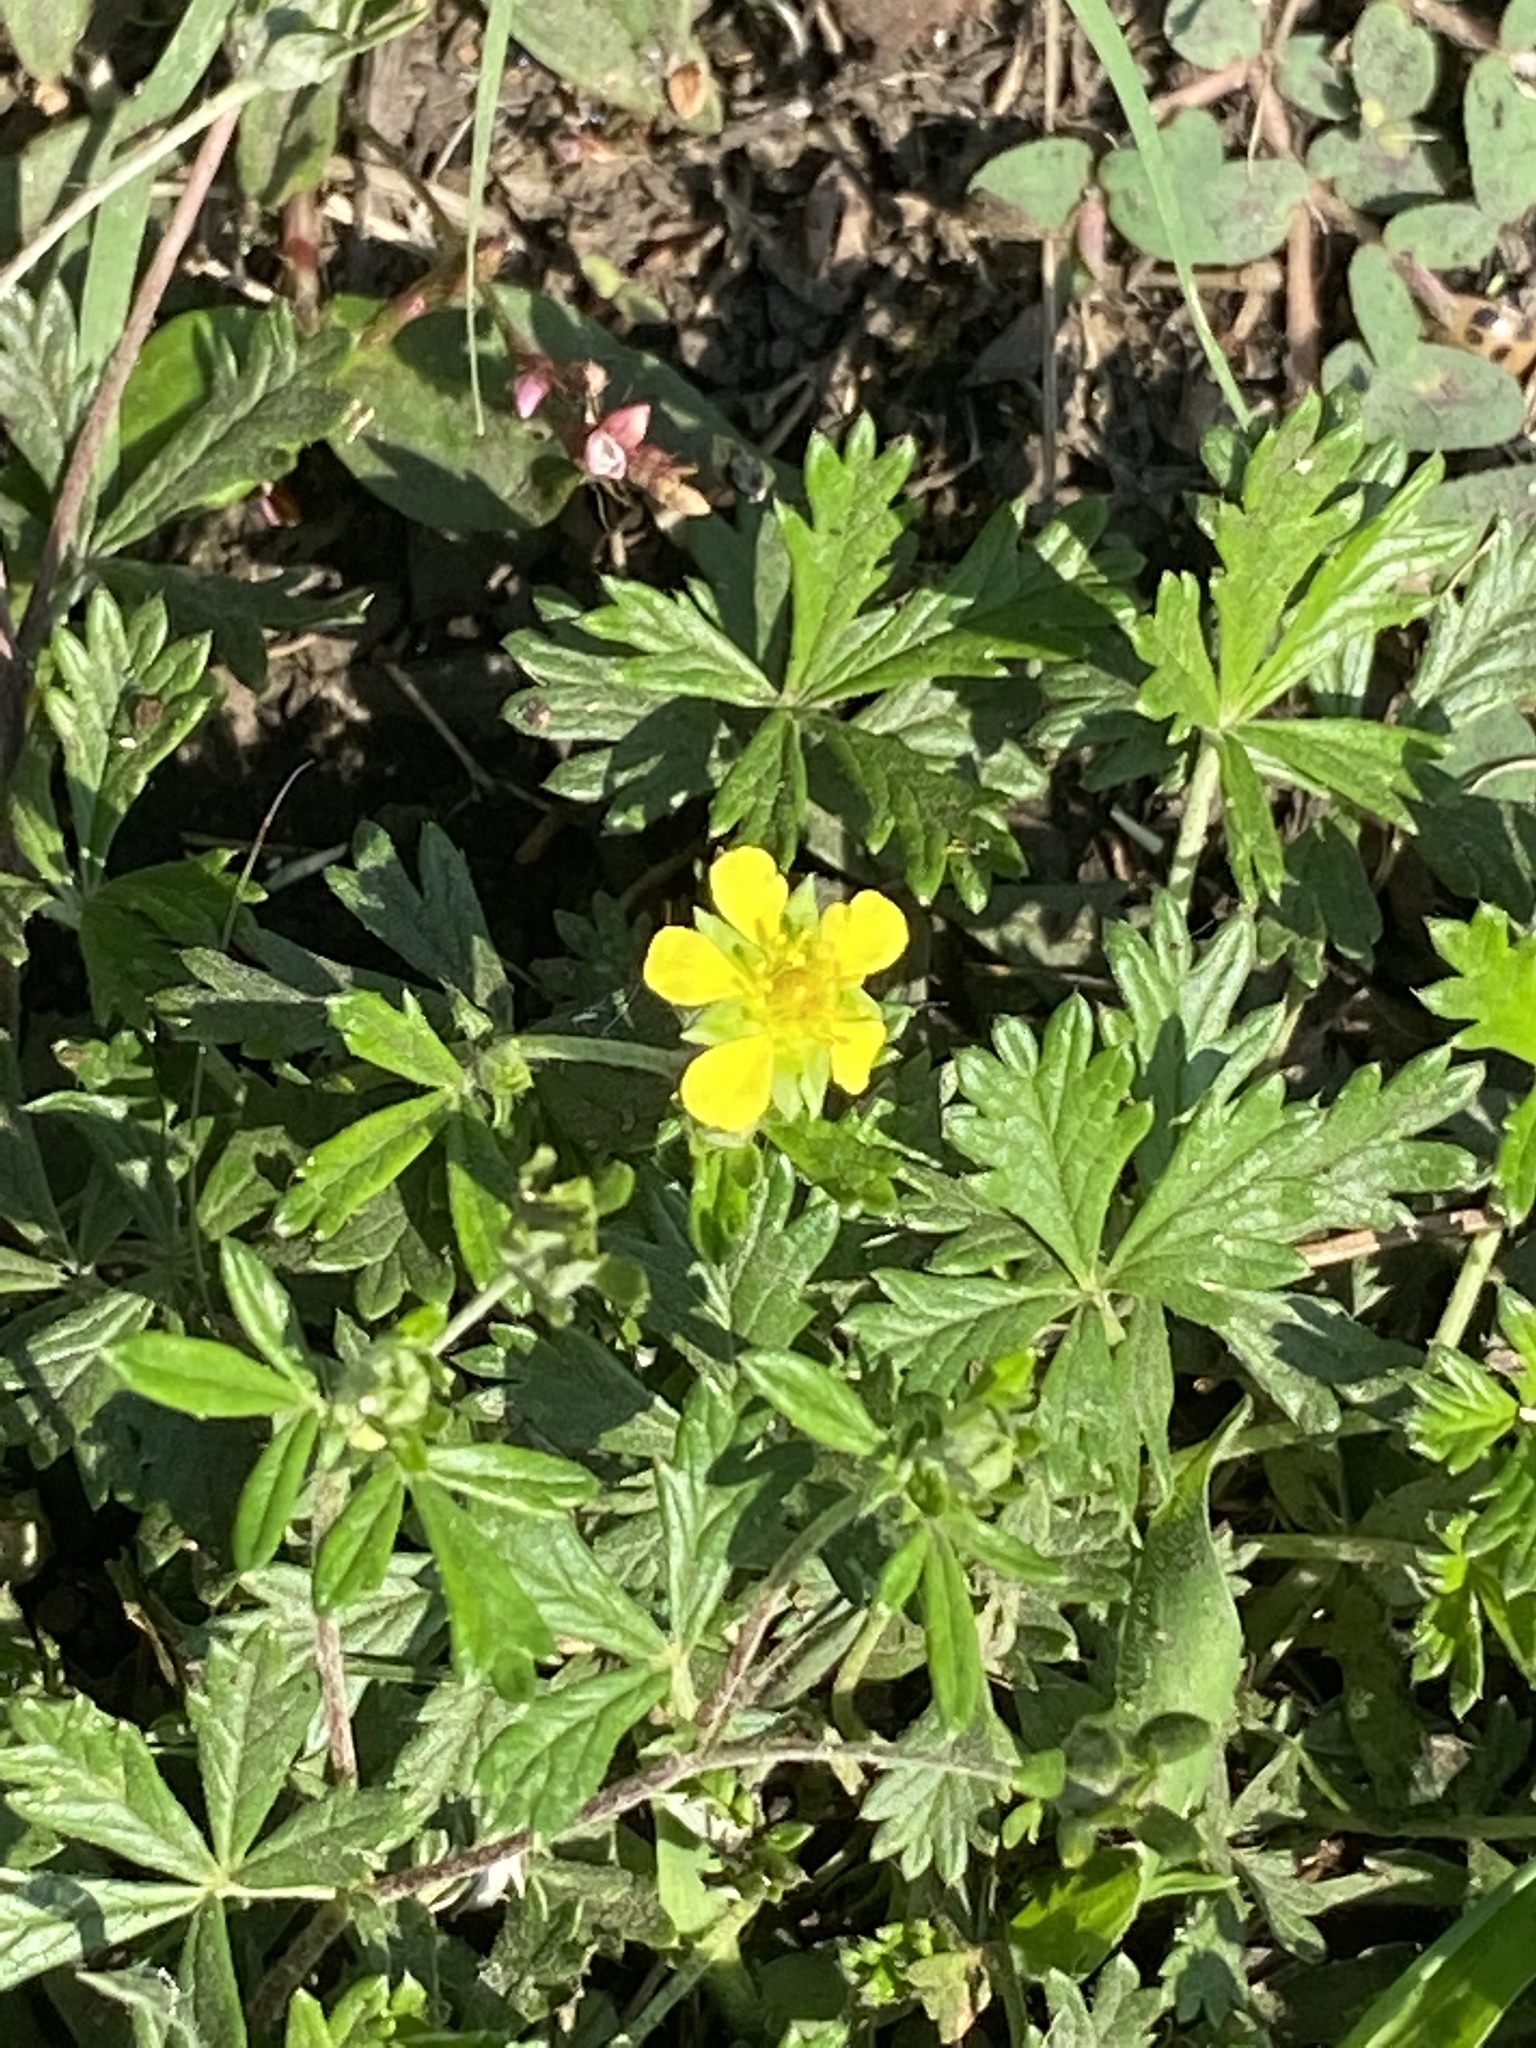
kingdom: Plantae
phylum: Tracheophyta
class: Magnoliopsida
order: Rosales
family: Rosaceae
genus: Potentilla
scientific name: Potentilla argentea
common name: Hoary cinquefoil
